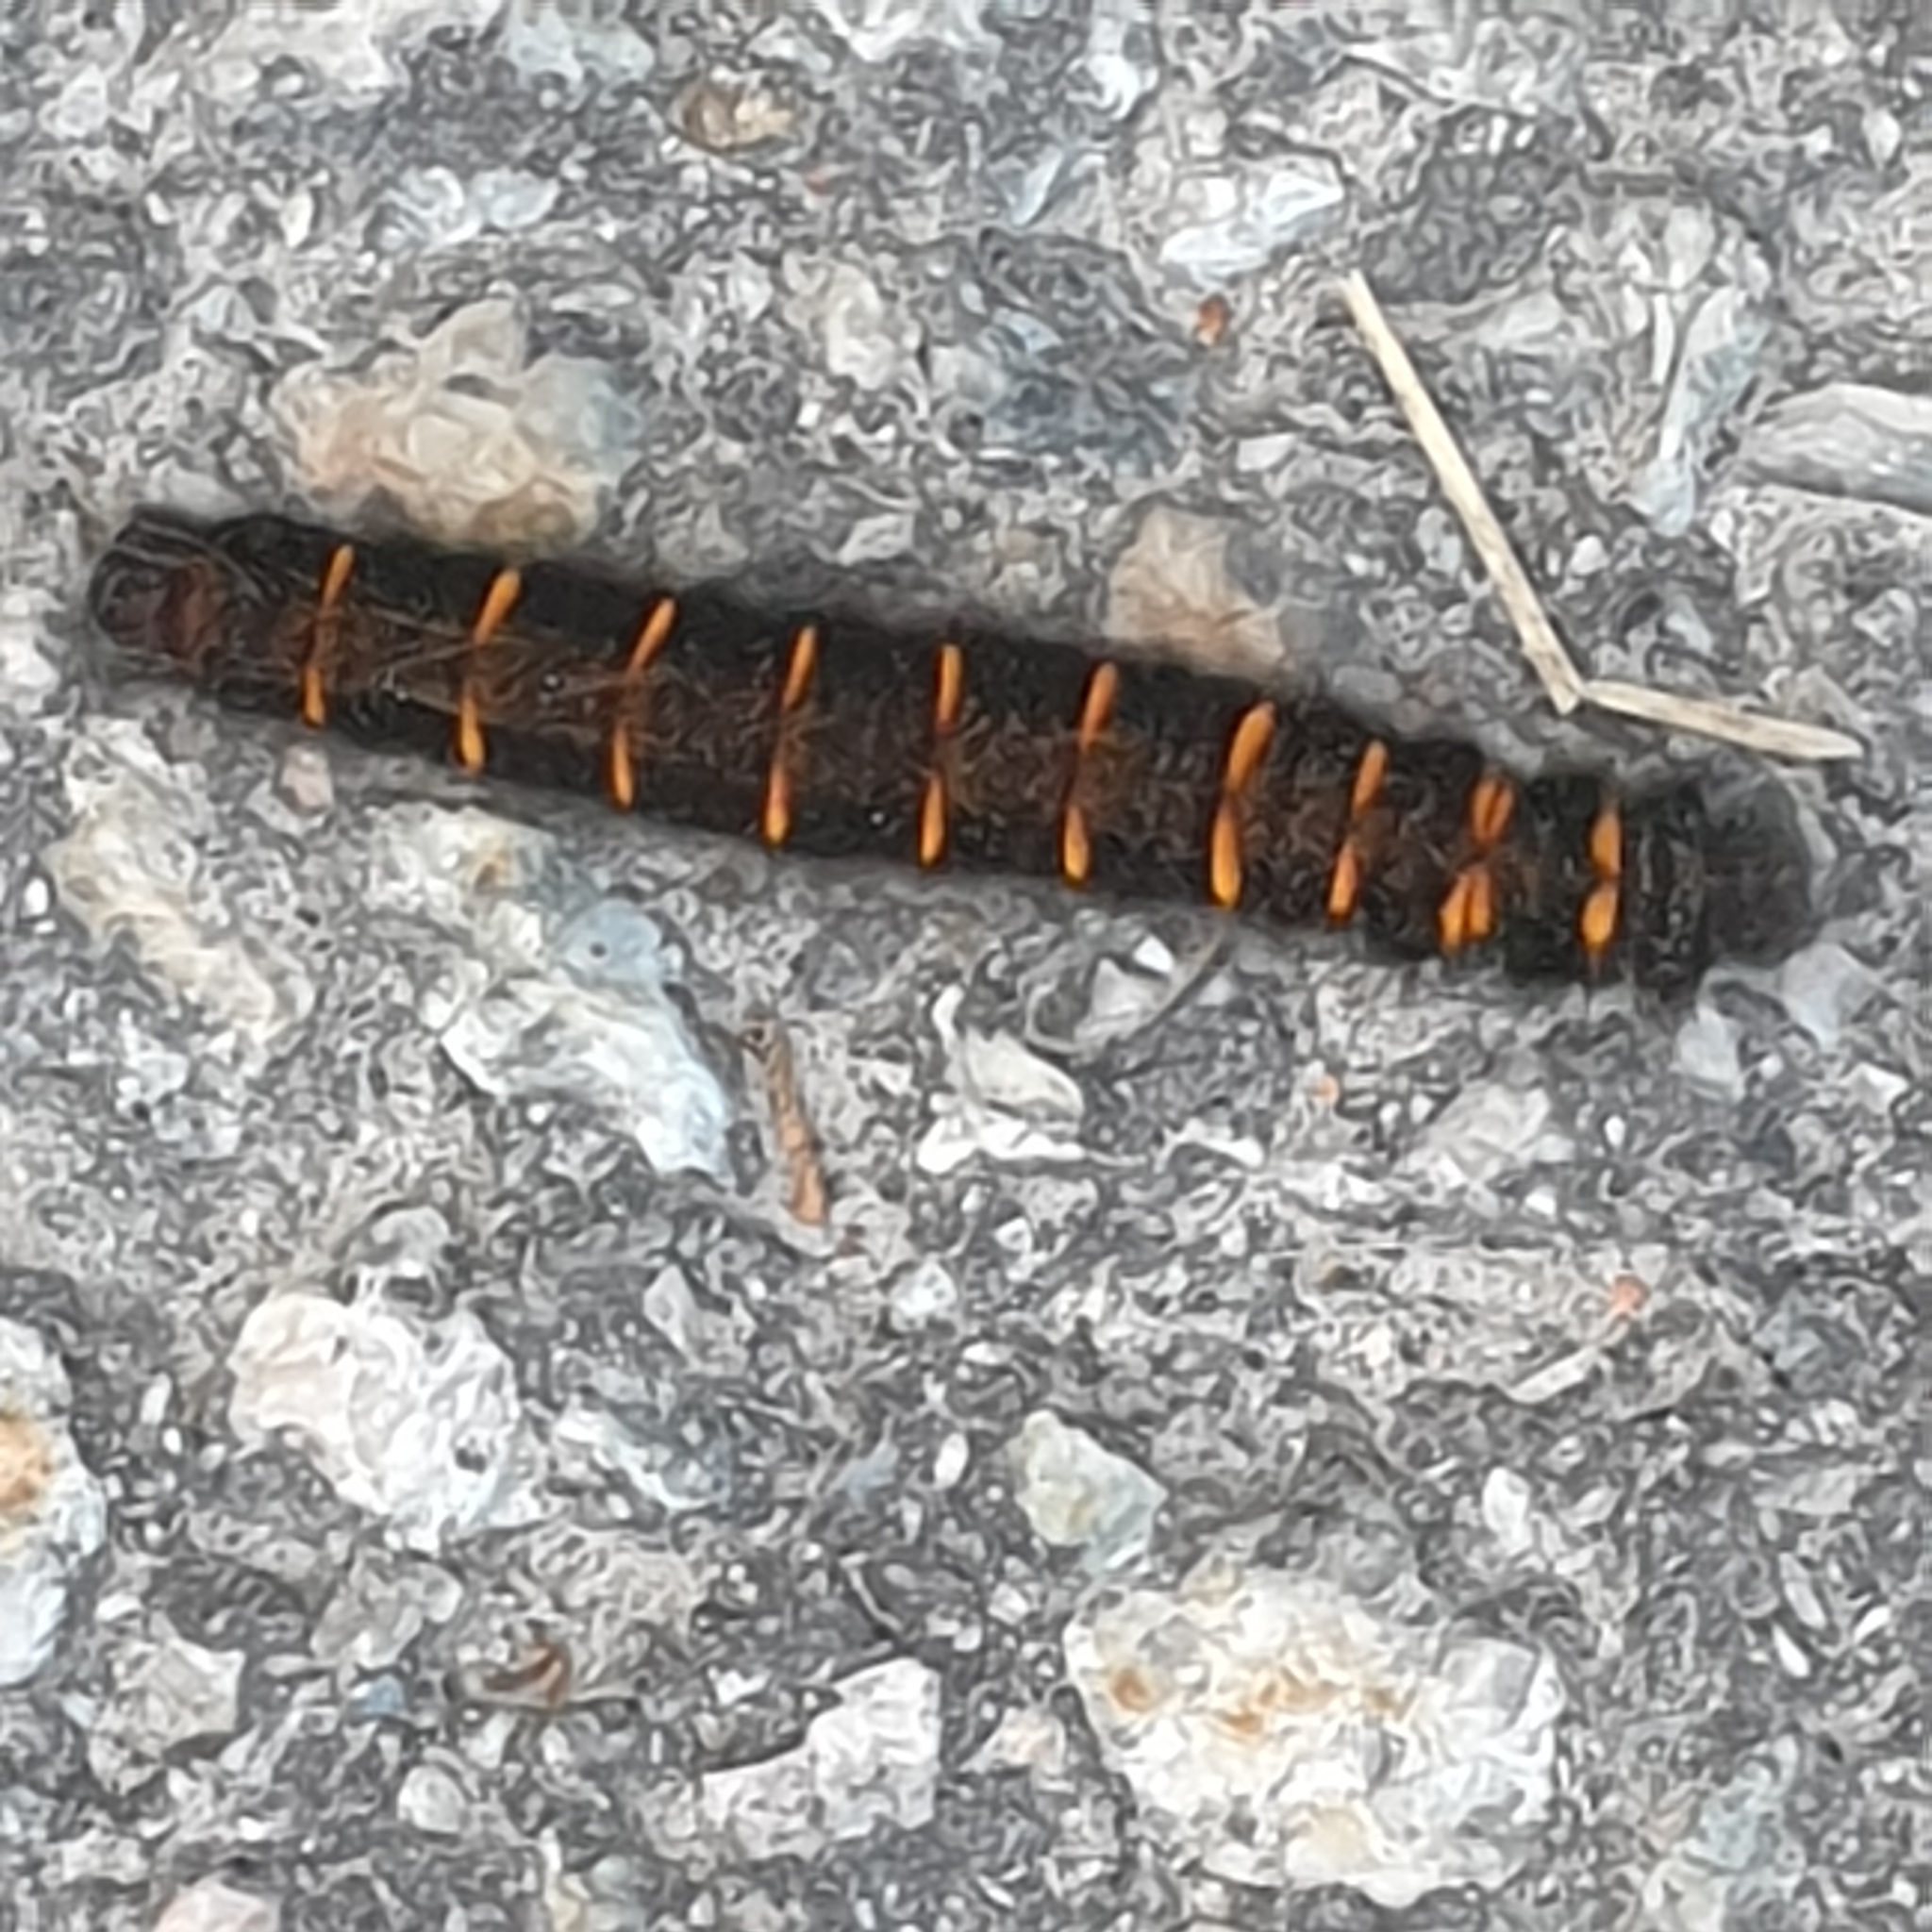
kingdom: Animalia
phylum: Arthropoda
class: Insecta
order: Lepidoptera
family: Lasiocampidae
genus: Macrothylacia
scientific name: Macrothylacia rubi
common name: Fox moth
